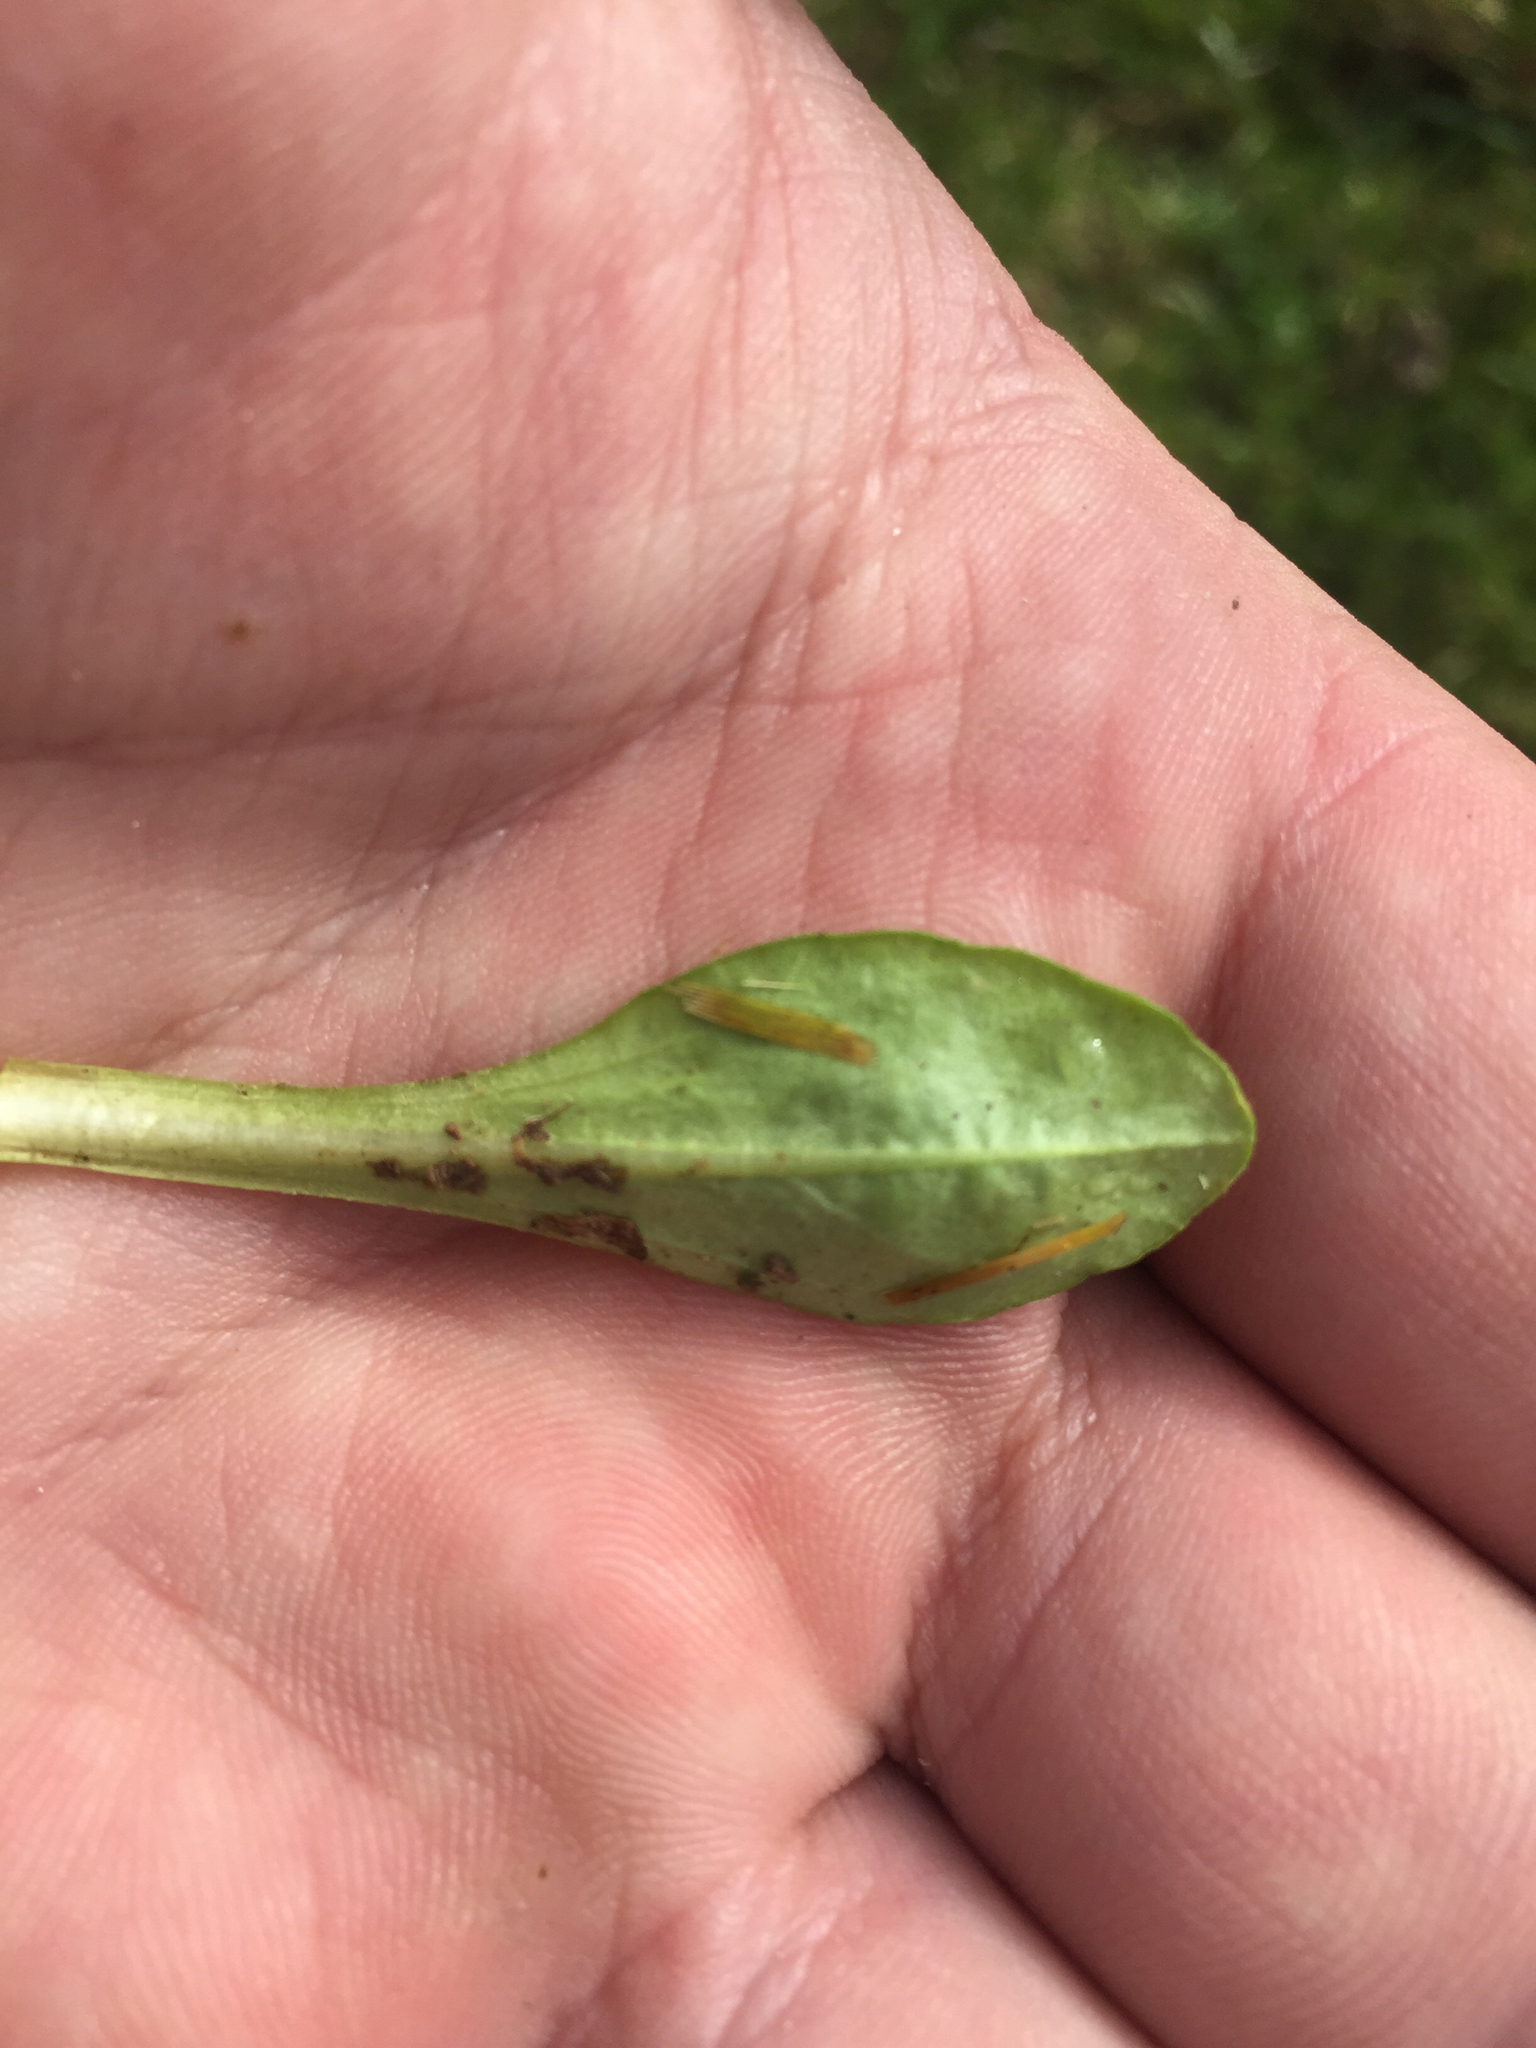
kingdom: Plantae
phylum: Tracheophyta
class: Magnoliopsida
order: Asterales
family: Asteraceae
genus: Bellis
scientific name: Bellis perennis
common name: Lawndaisy
